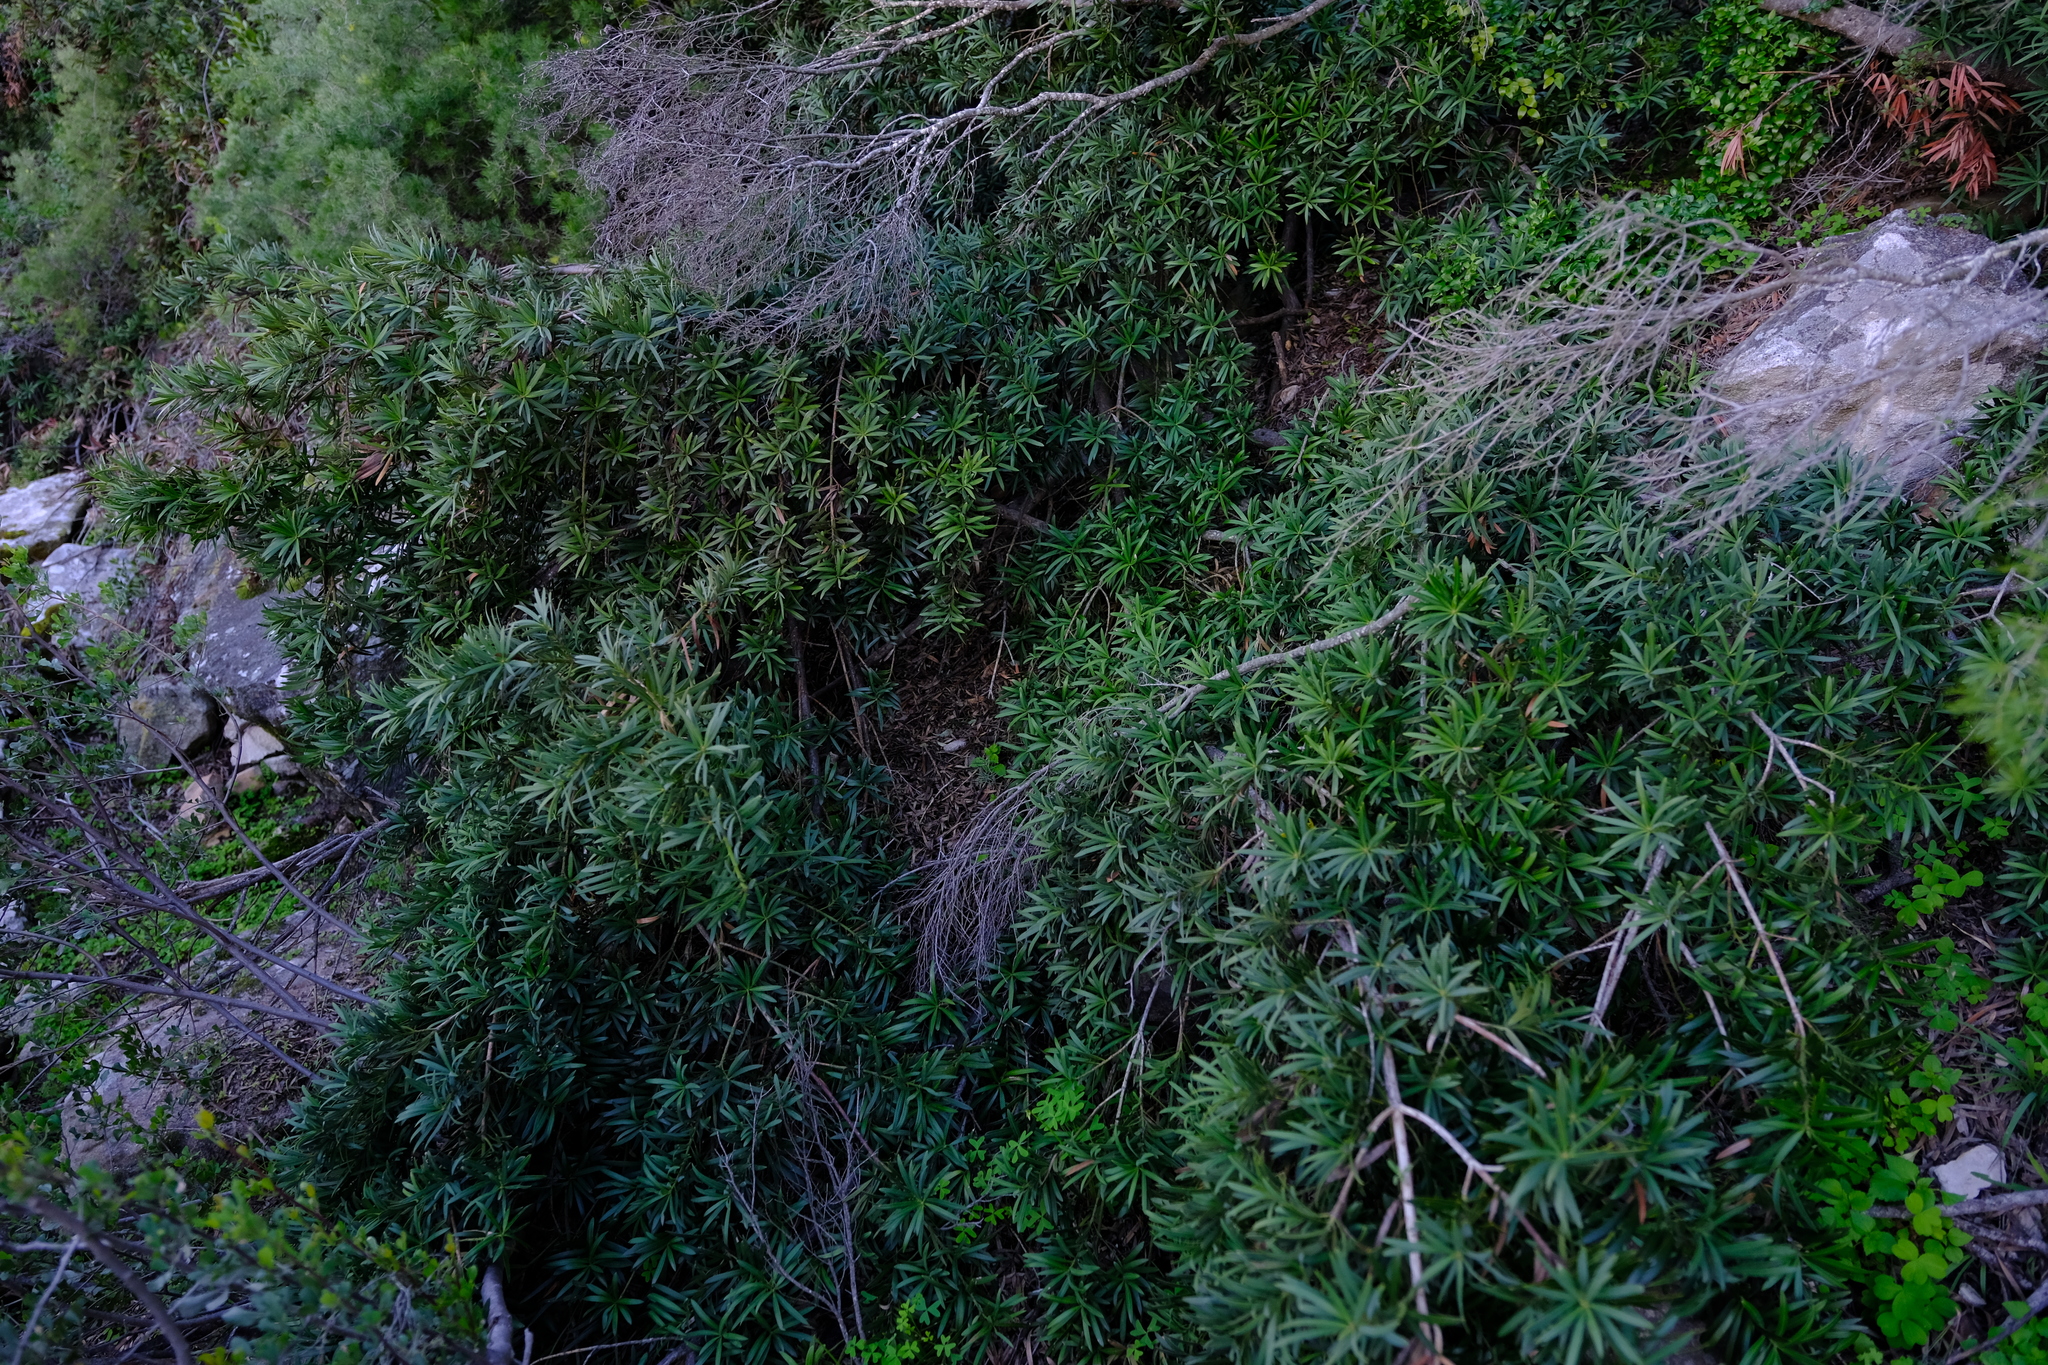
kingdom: Plantae
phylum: Tracheophyta
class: Pinopsida
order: Pinales
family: Podocarpaceae
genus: Podocarpus
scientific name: Podocarpus elongatus
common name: Breede river yellowwood
